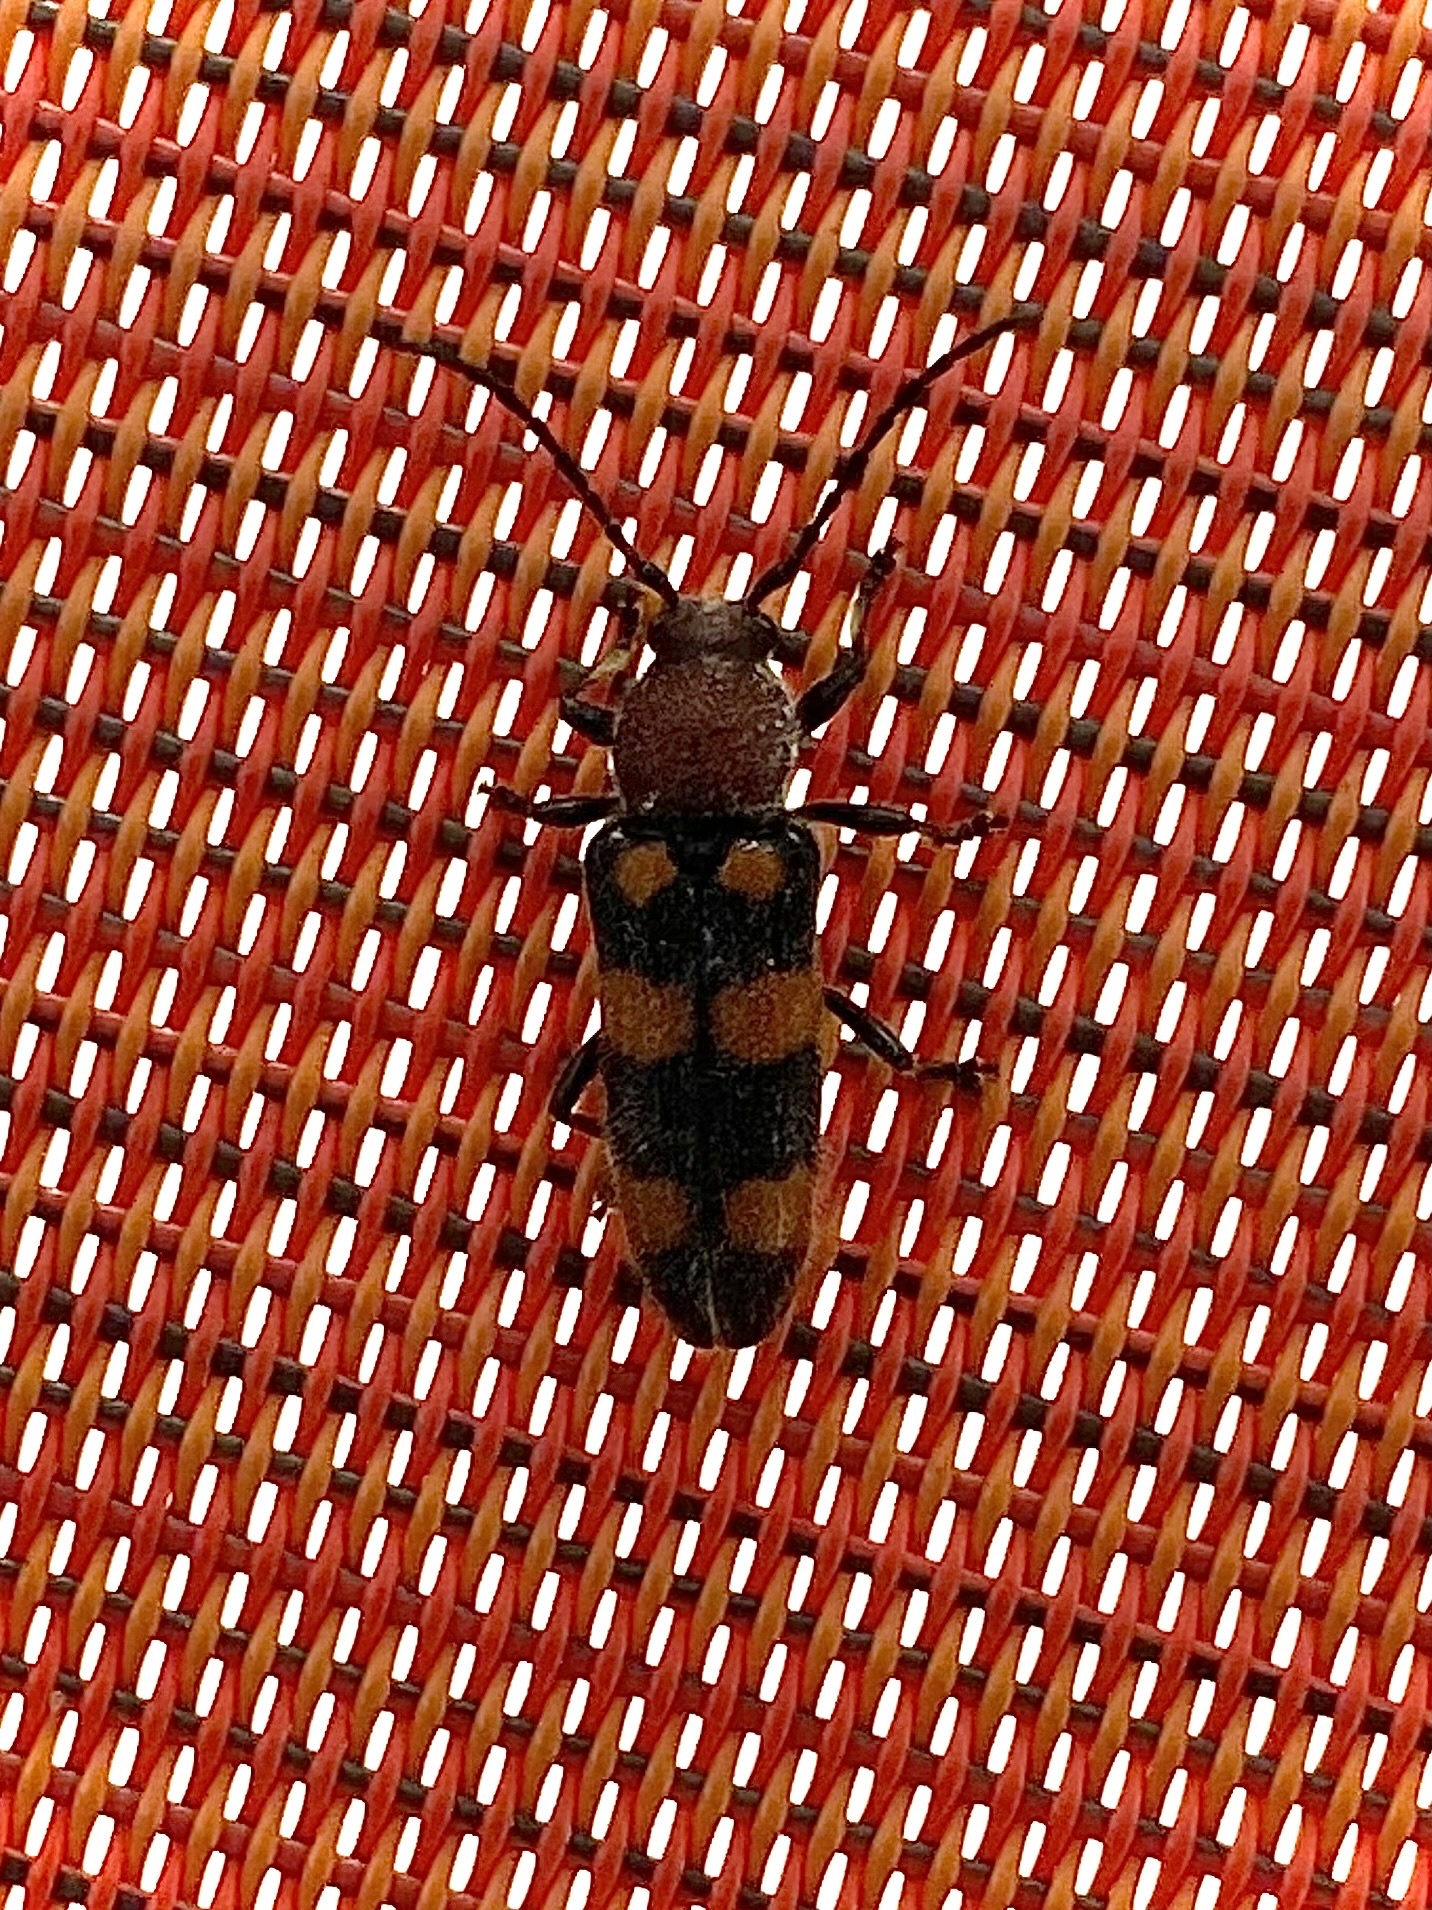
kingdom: Animalia
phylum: Arthropoda
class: Insecta
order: Coleoptera
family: Cerambycidae
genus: Zagymnus
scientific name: Zagymnus clerinus
